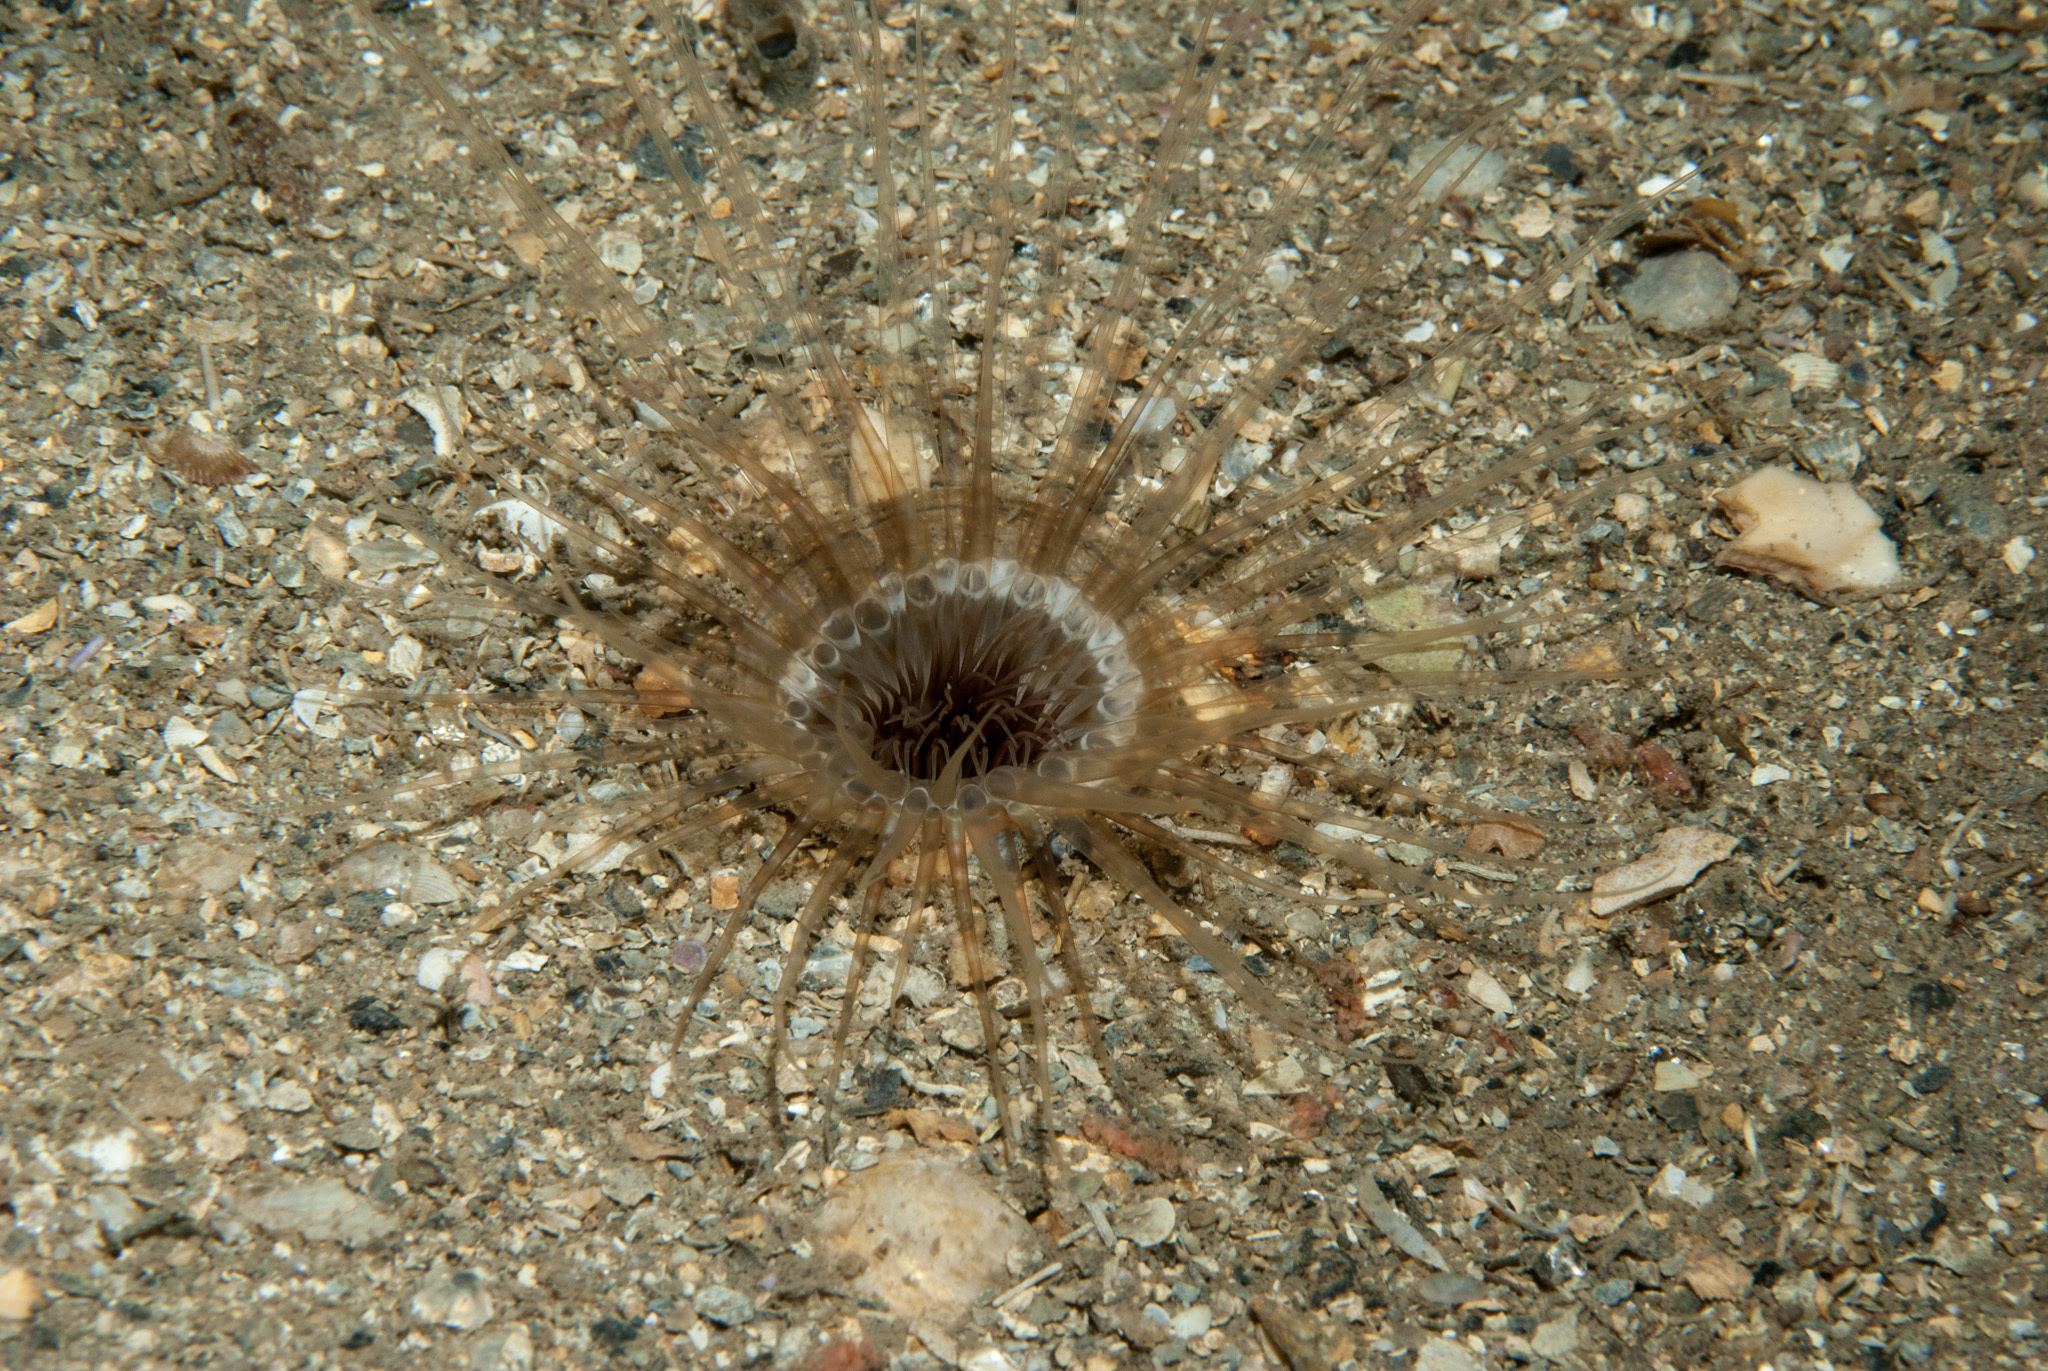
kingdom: Animalia
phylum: Cnidaria
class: Anthozoa
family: Cerianthidae
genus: Synarachnactis
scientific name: Synarachnactis
